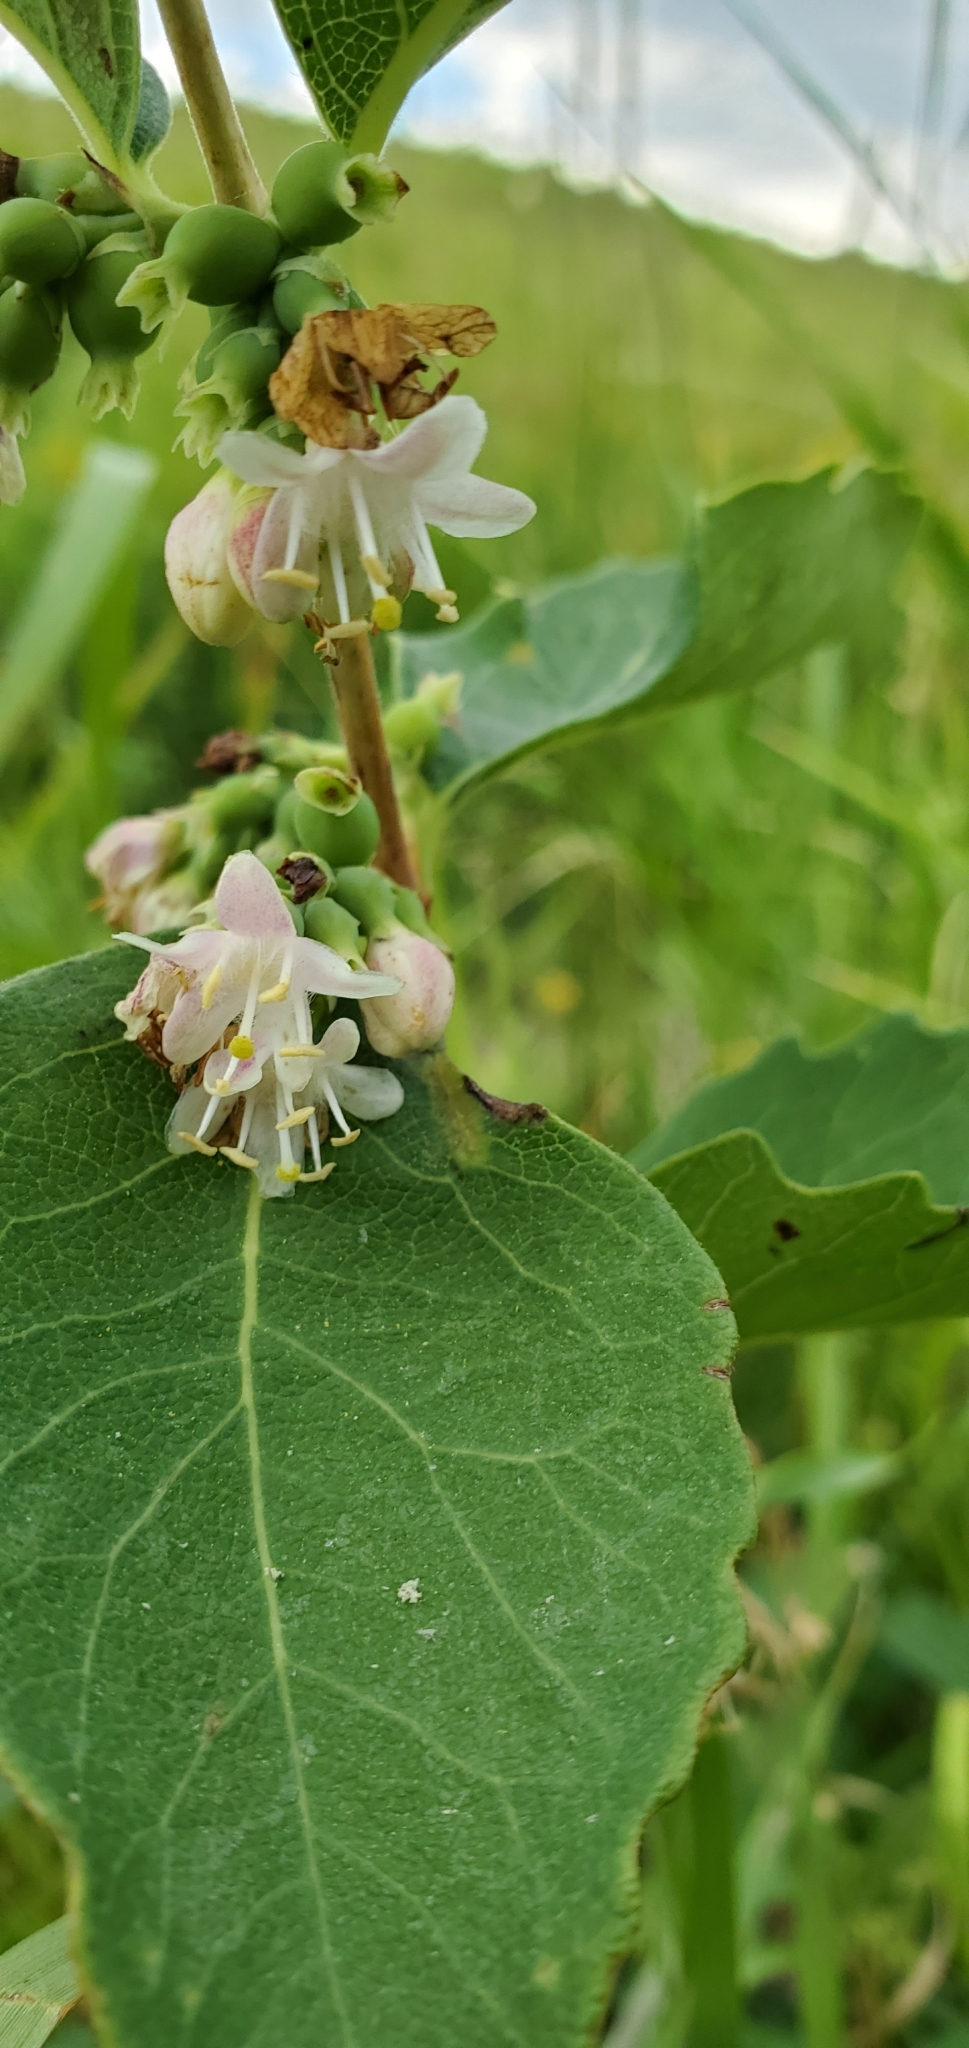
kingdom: Plantae
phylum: Tracheophyta
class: Magnoliopsida
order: Dipsacales
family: Caprifoliaceae
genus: Symphoricarpos
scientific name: Symphoricarpos occidentalis
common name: Wolfberry
